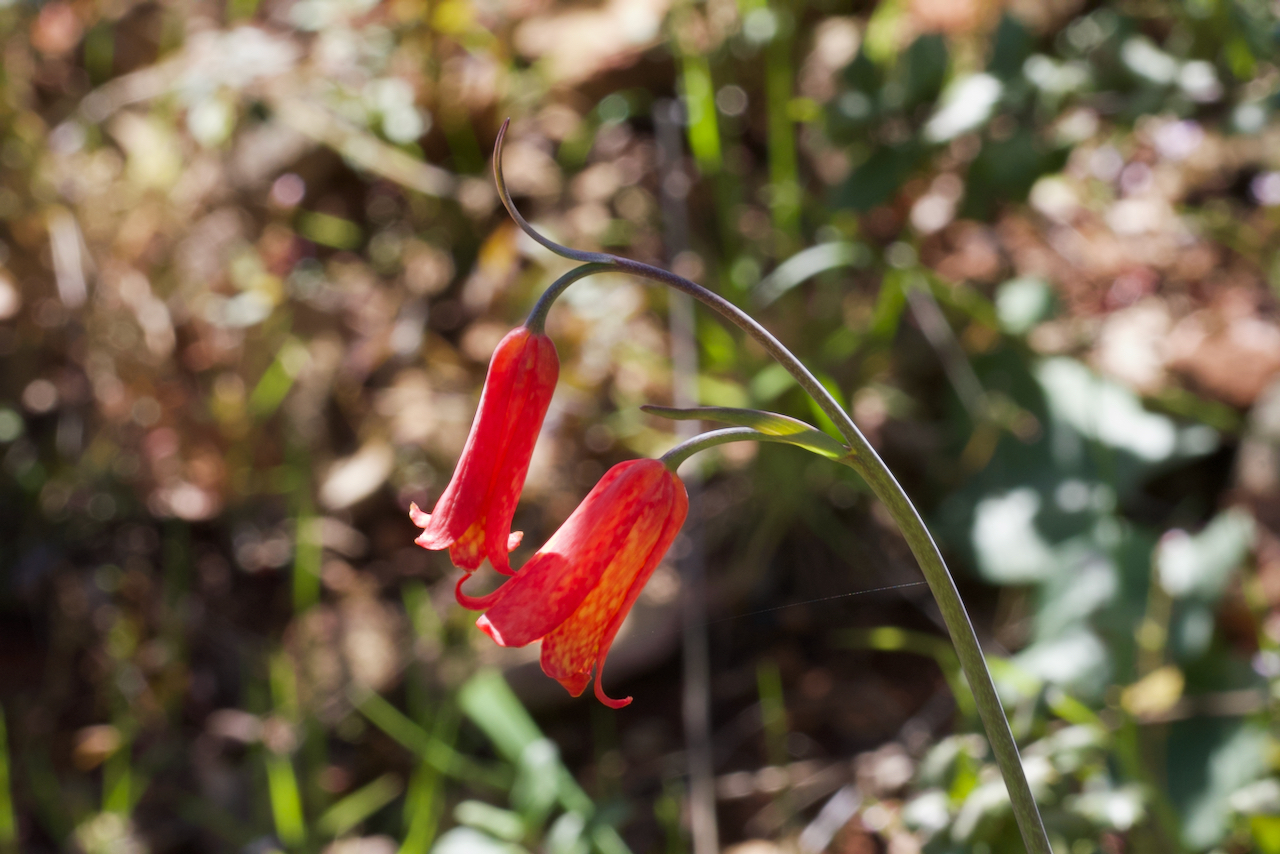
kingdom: Plantae
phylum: Tracheophyta
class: Liliopsida
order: Liliales
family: Liliaceae
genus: Fritillaria
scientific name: Fritillaria recurva
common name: Scarlet fritillary
